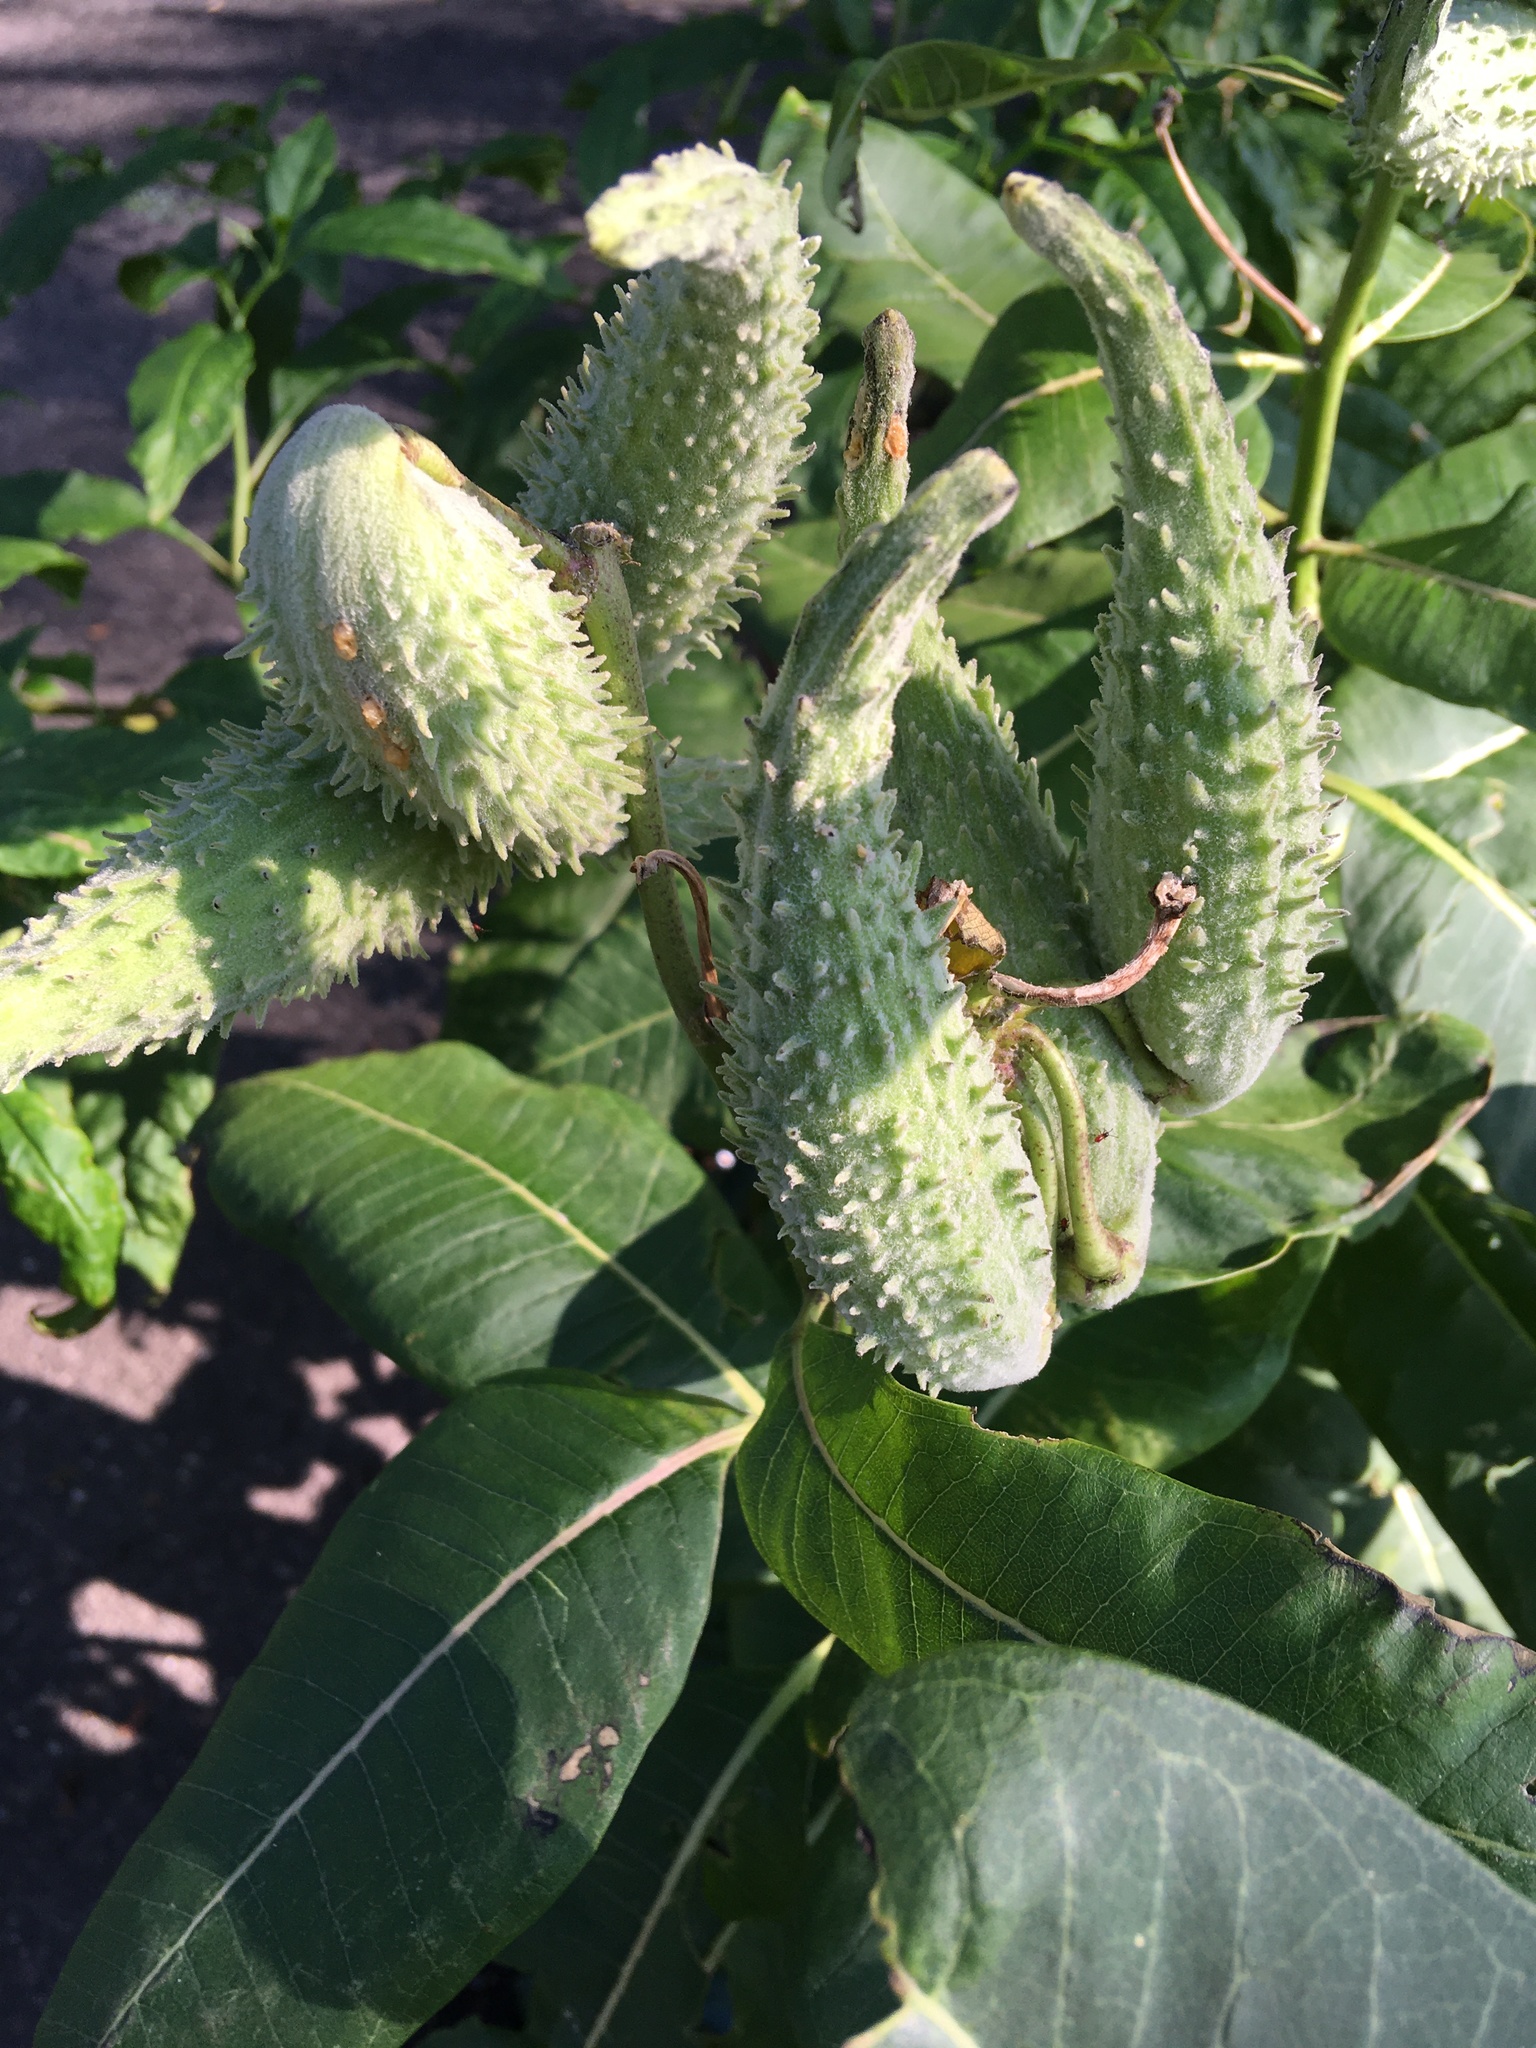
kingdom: Plantae
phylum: Tracheophyta
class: Magnoliopsida
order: Gentianales
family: Apocynaceae
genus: Asclepias
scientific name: Asclepias syriaca
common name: Common milkweed
